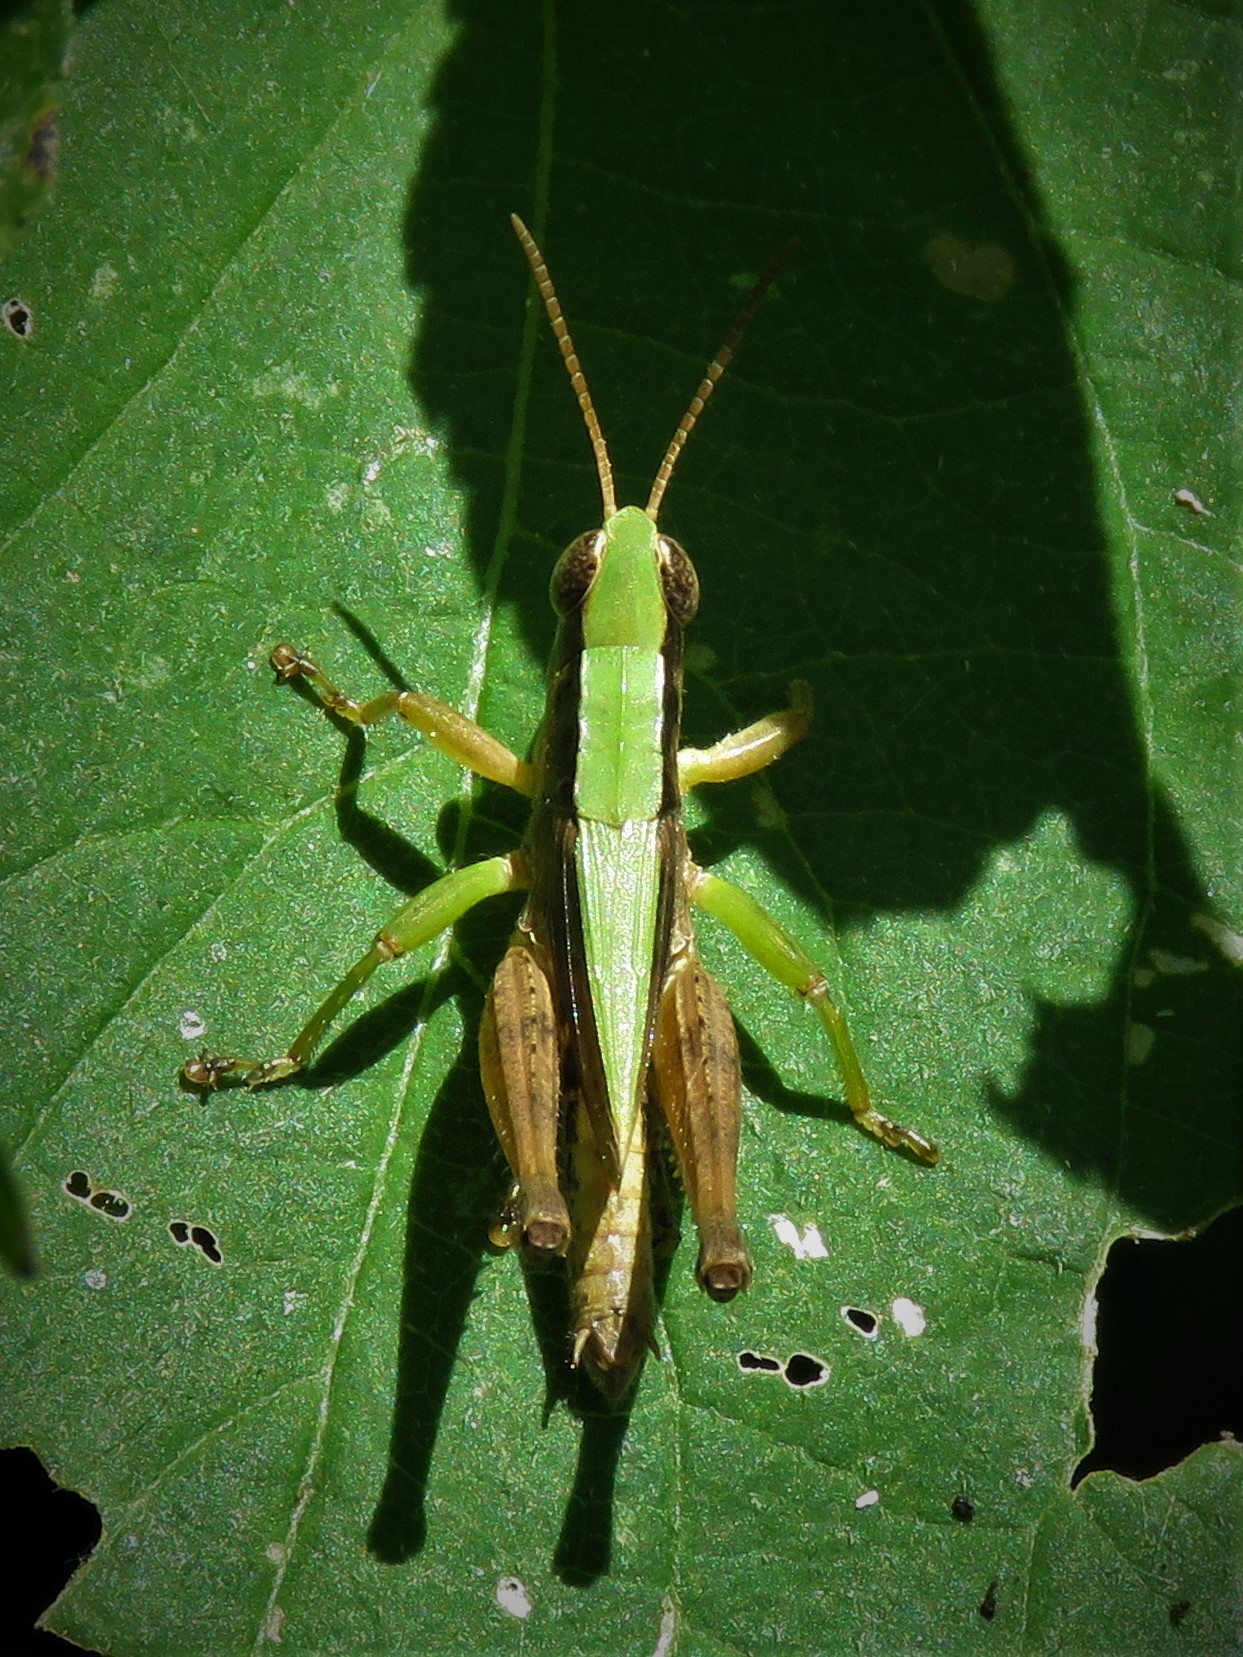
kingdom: Animalia
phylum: Arthropoda
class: Insecta
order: Orthoptera
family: Acrididae
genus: Dichromorpha
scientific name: Dichromorpha viridis
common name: Short-winged green grasshopper
